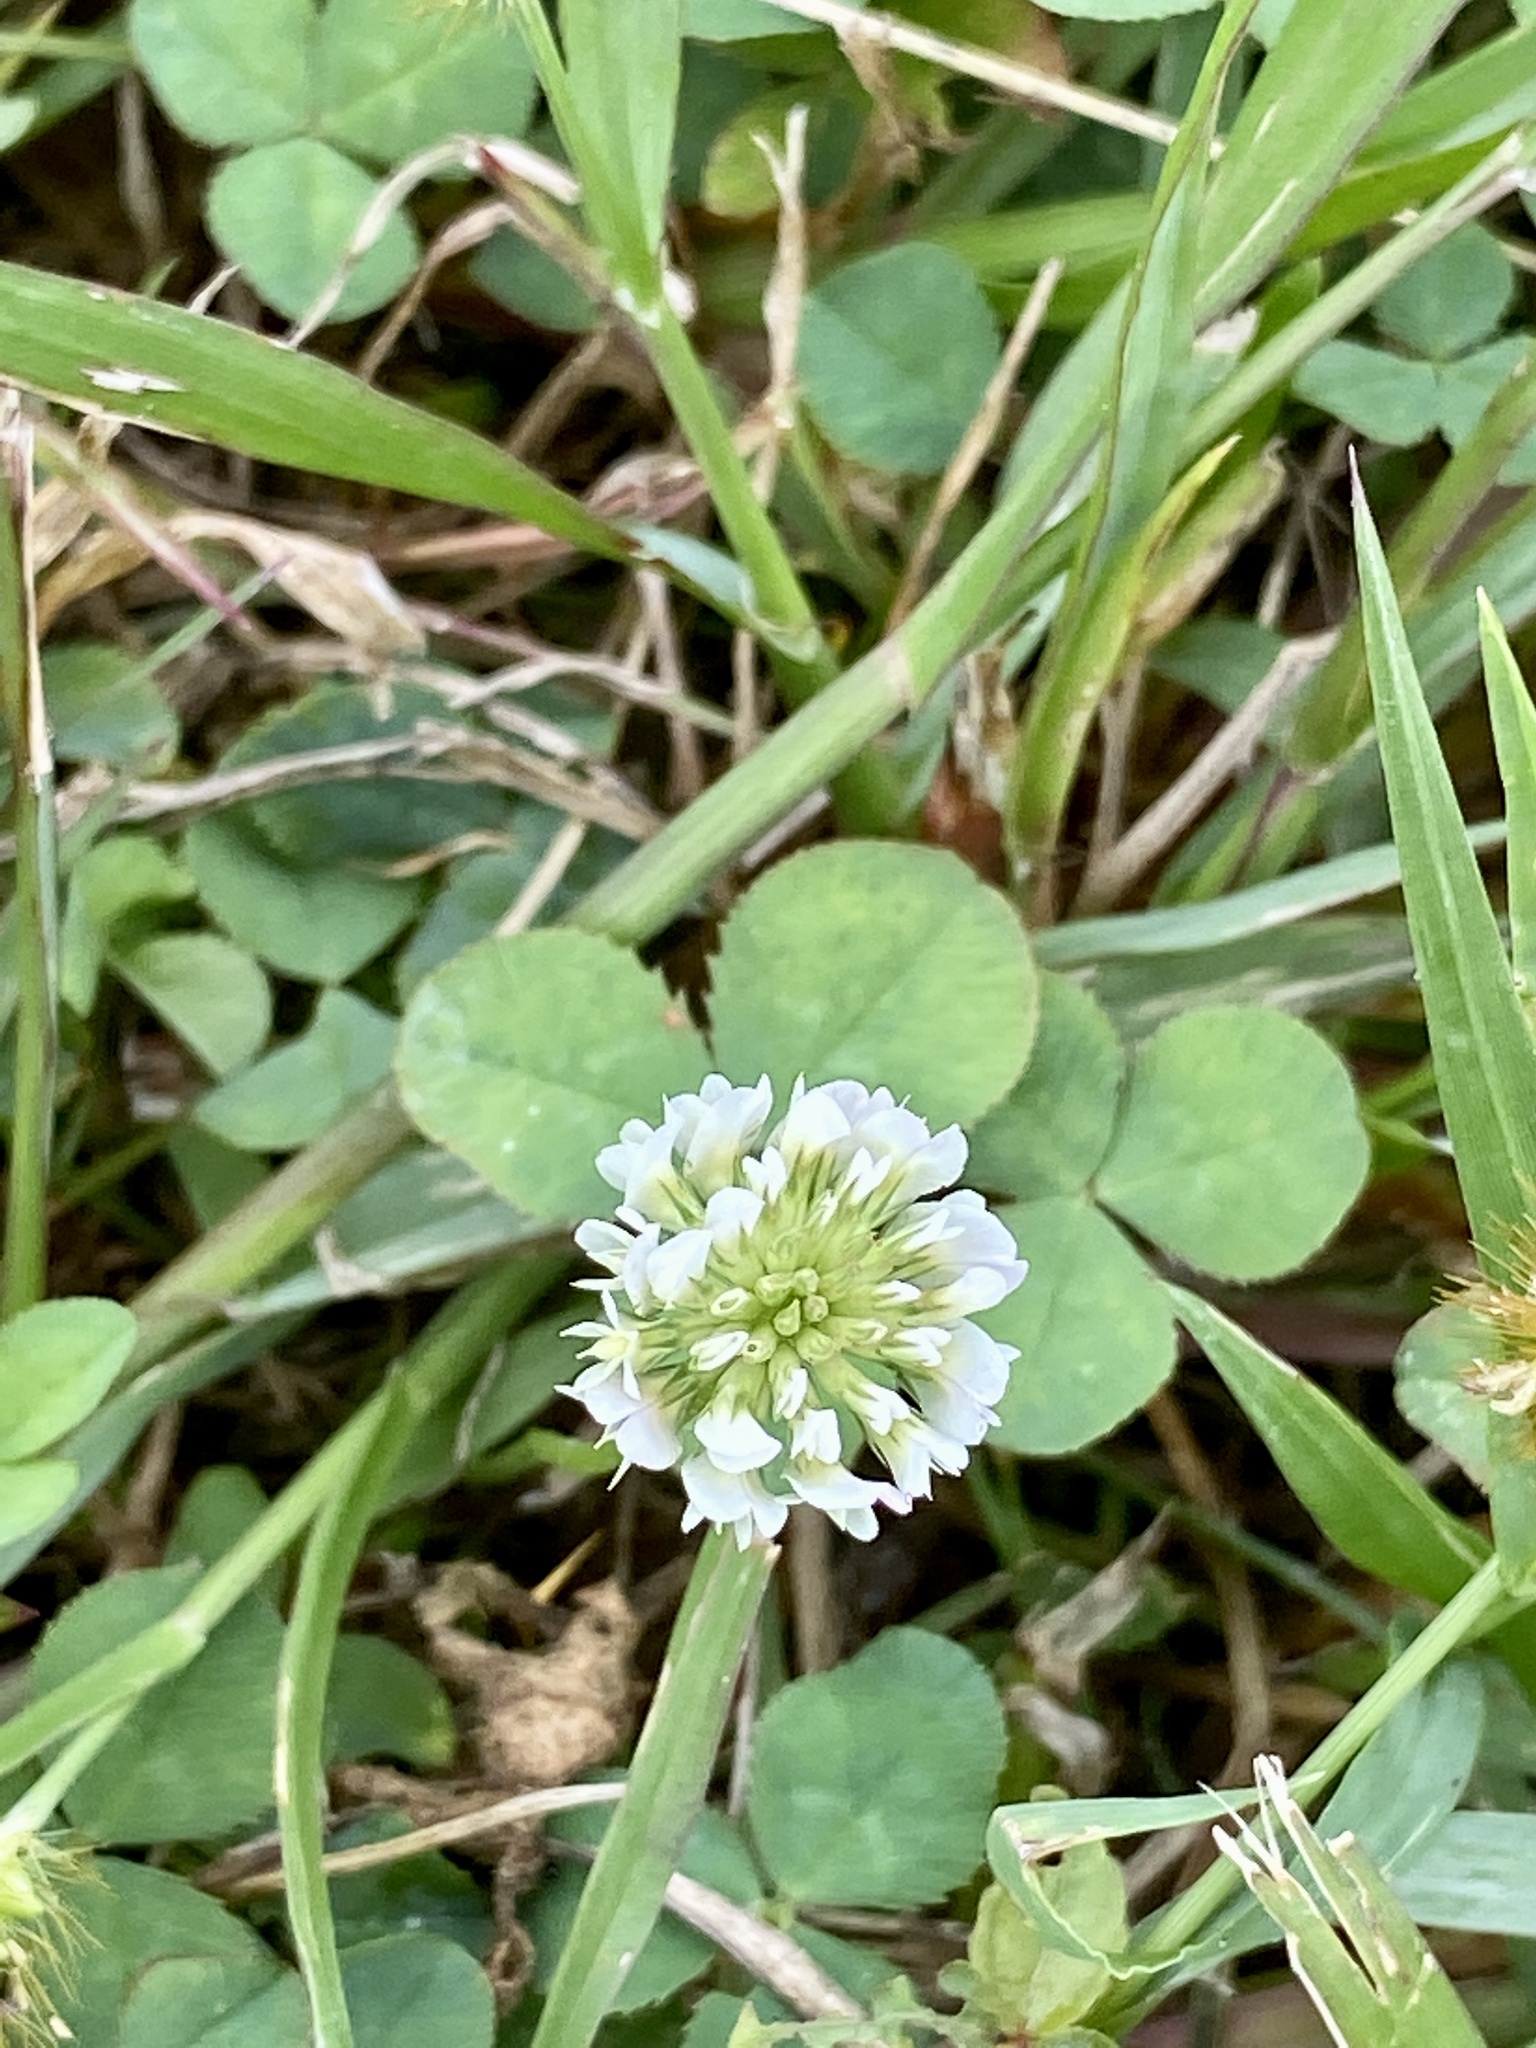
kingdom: Plantae
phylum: Tracheophyta
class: Magnoliopsida
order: Fabales
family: Fabaceae
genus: Trifolium
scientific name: Trifolium repens
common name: White clover
